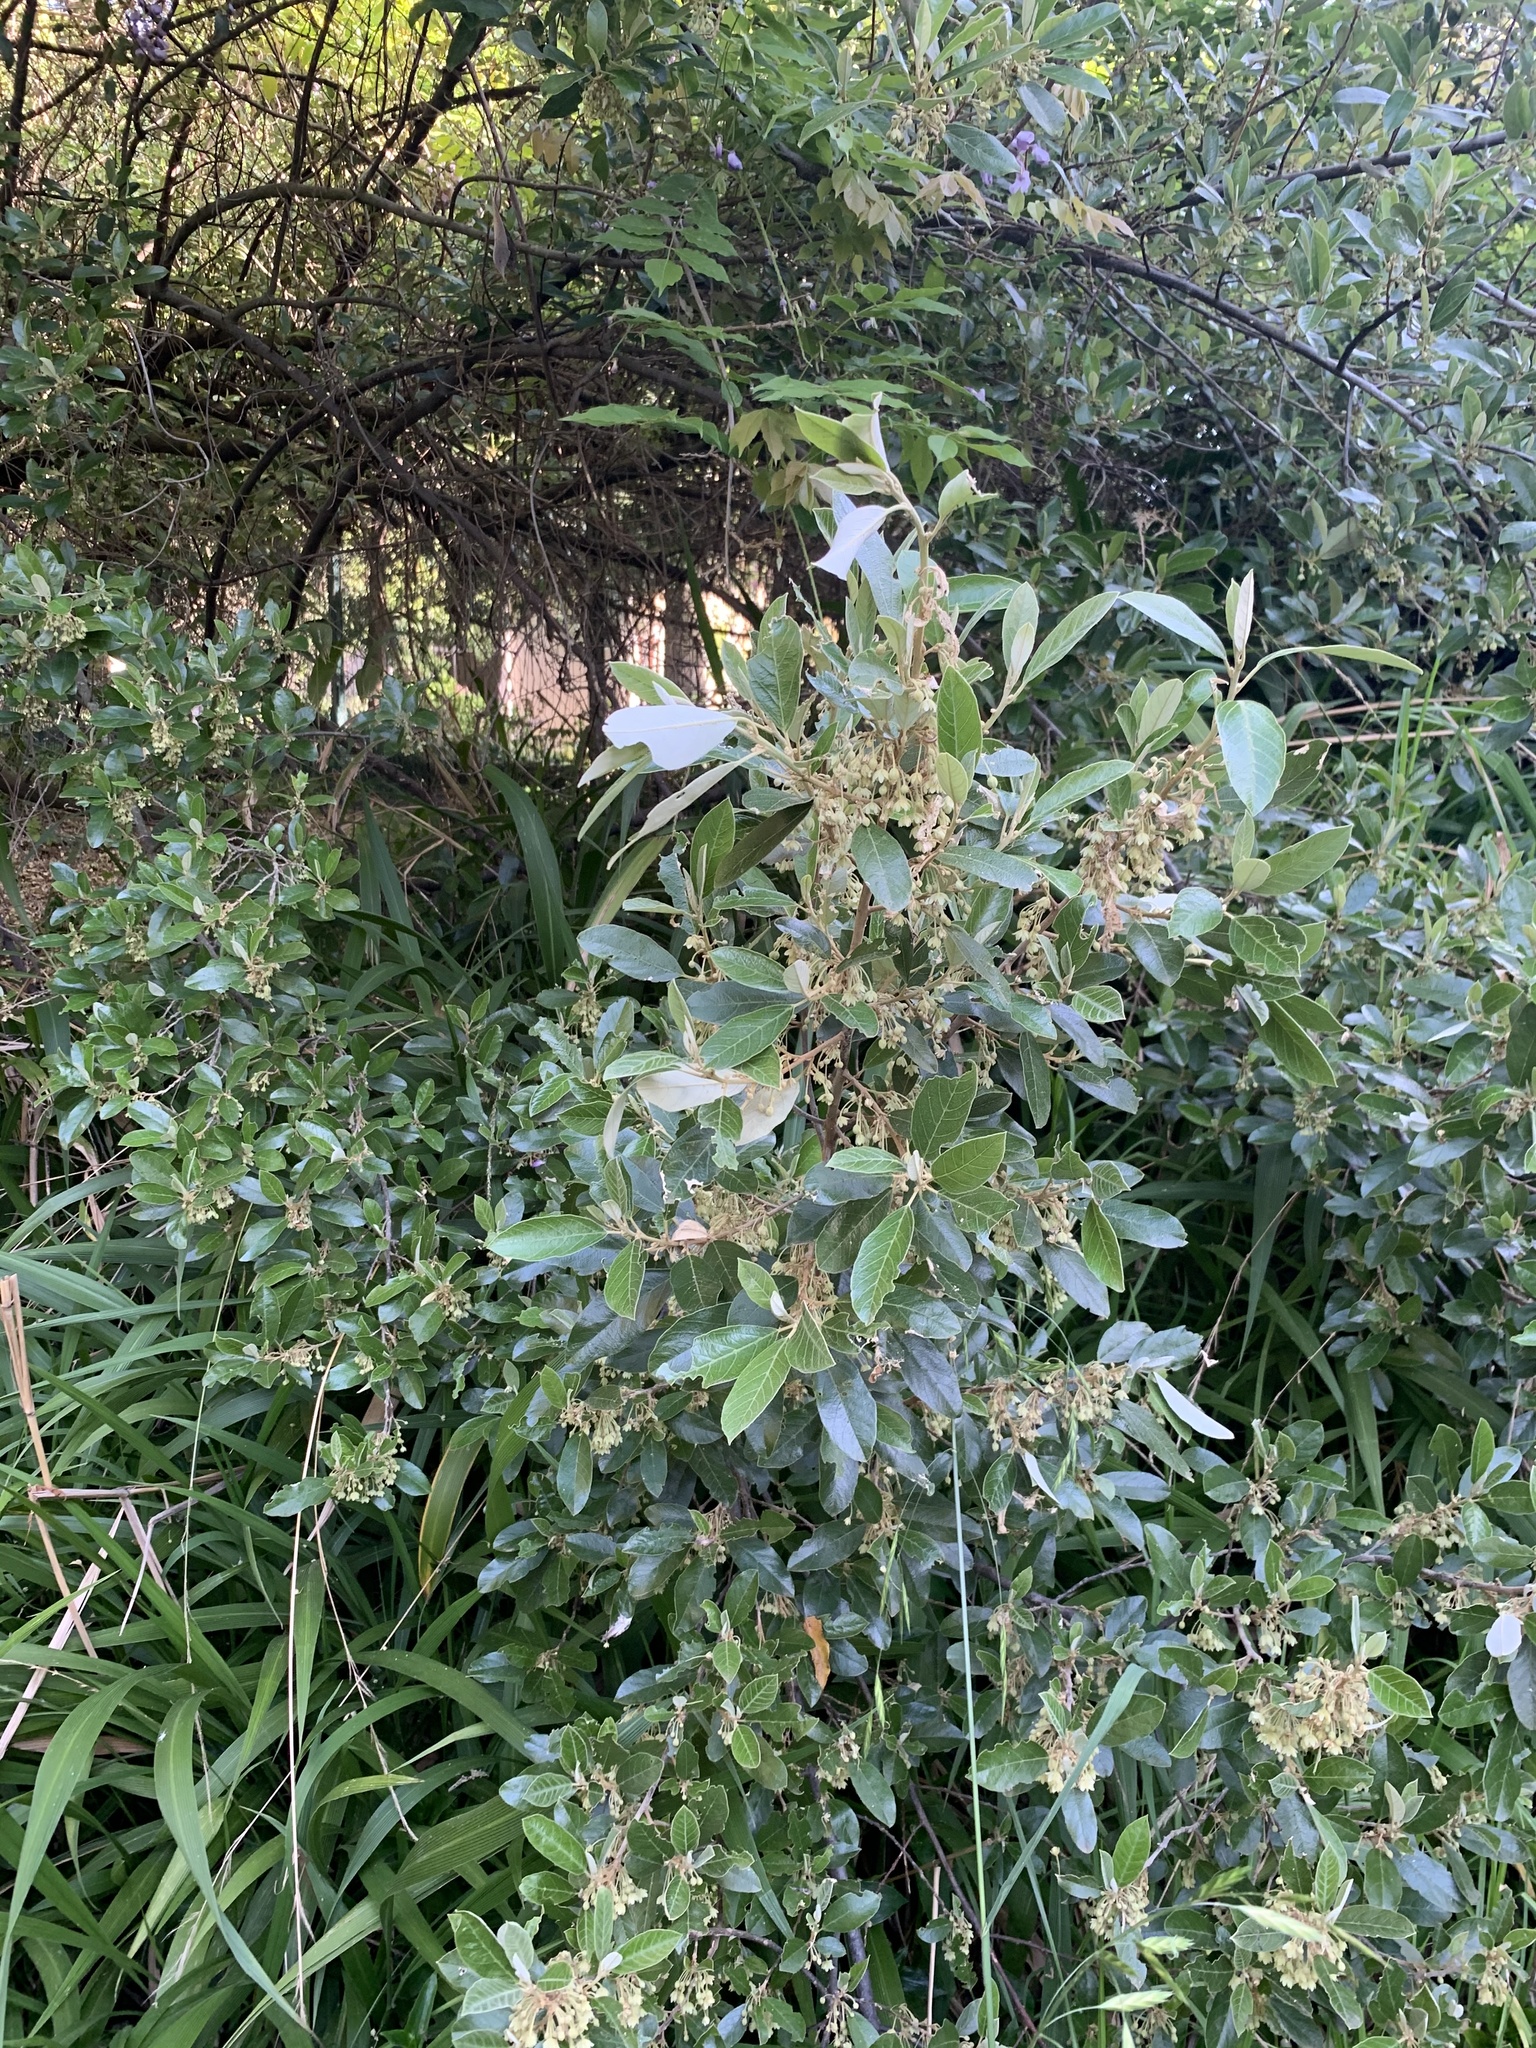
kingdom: Plantae
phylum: Tracheophyta
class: Magnoliopsida
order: Malpighiales
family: Achariaceae
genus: Kiggelaria
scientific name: Kiggelaria africana
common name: Wild peach
